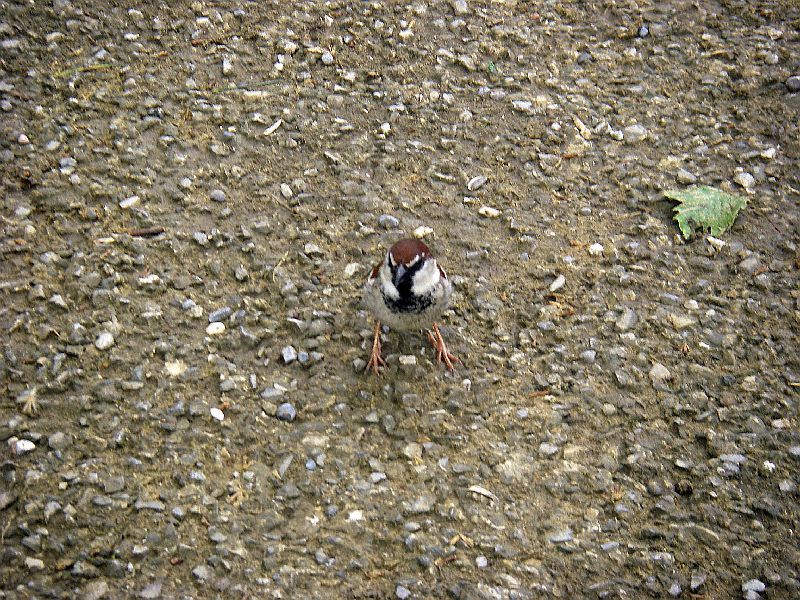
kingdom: Animalia
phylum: Chordata
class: Aves
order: Passeriformes
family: Passeridae
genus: Passer
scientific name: Passer italiae
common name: Italian sparrow
